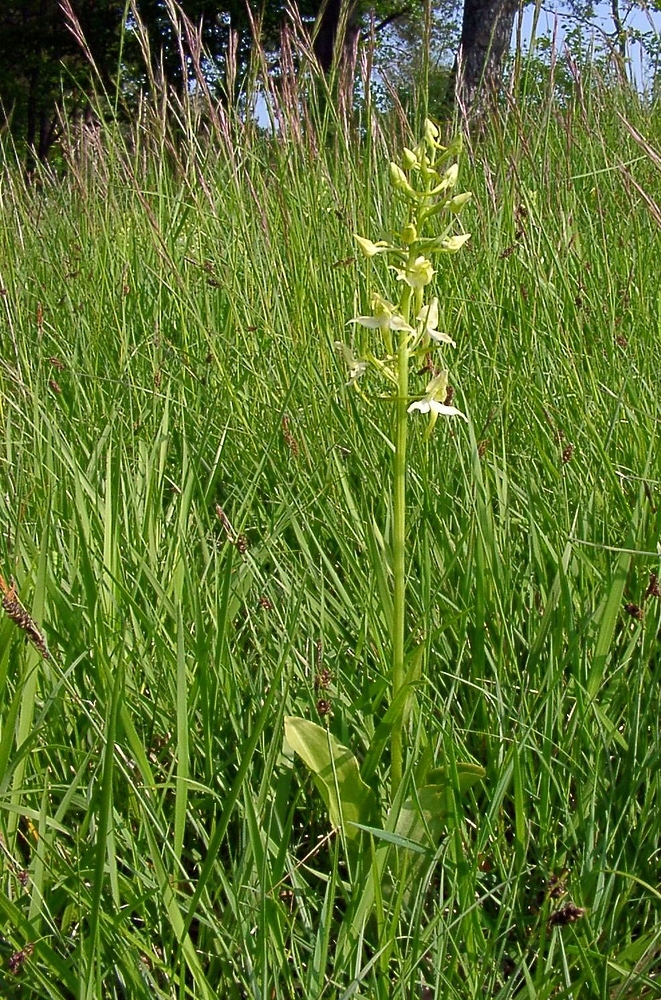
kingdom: Plantae
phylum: Tracheophyta
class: Liliopsida
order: Asparagales
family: Orchidaceae
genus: Platanthera
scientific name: Platanthera chlorantha
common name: Greater butterfly-orchid
